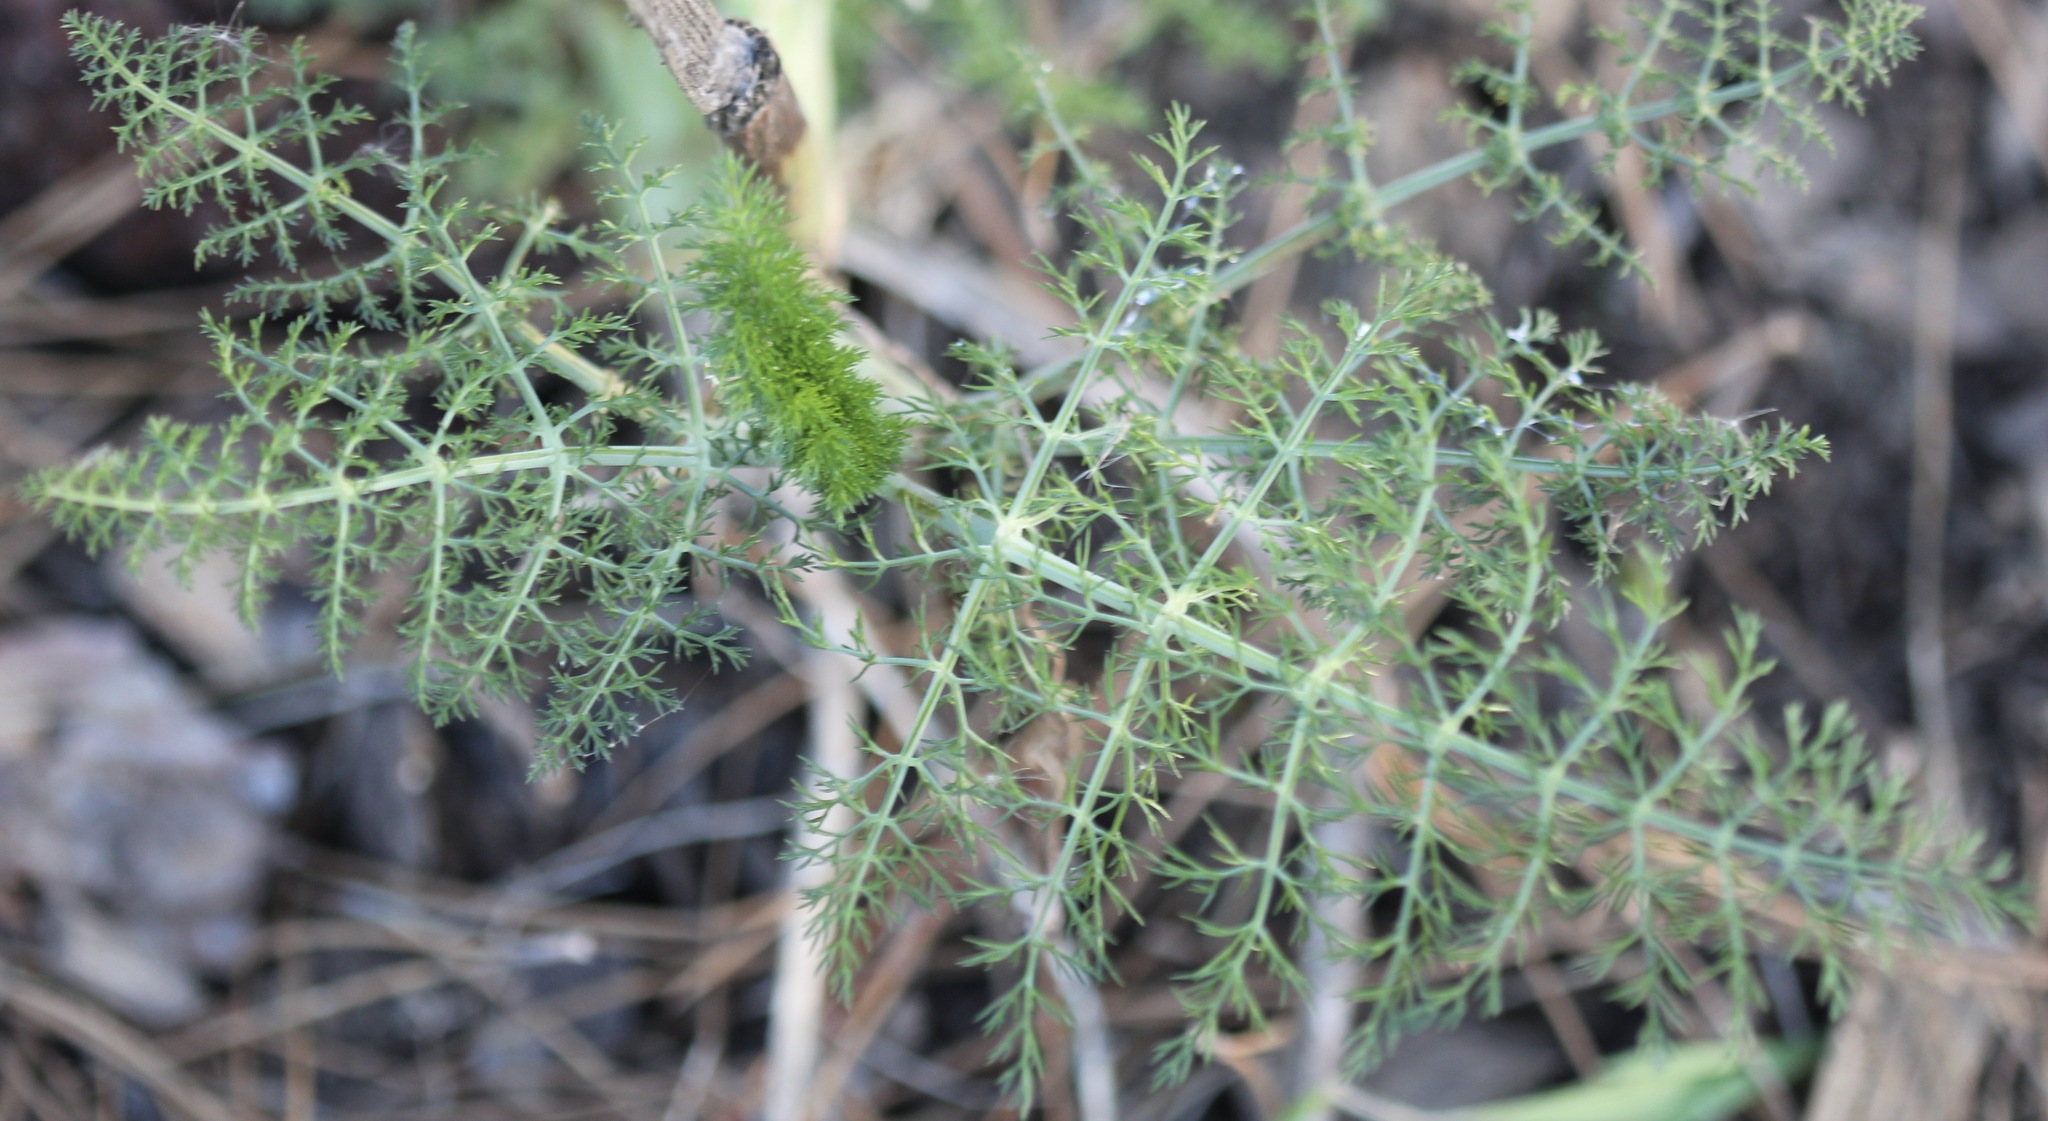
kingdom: Plantae
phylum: Tracheophyta
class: Magnoliopsida
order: Apiales
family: Apiaceae
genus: Foeniculum
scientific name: Foeniculum vulgare
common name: Fennel
